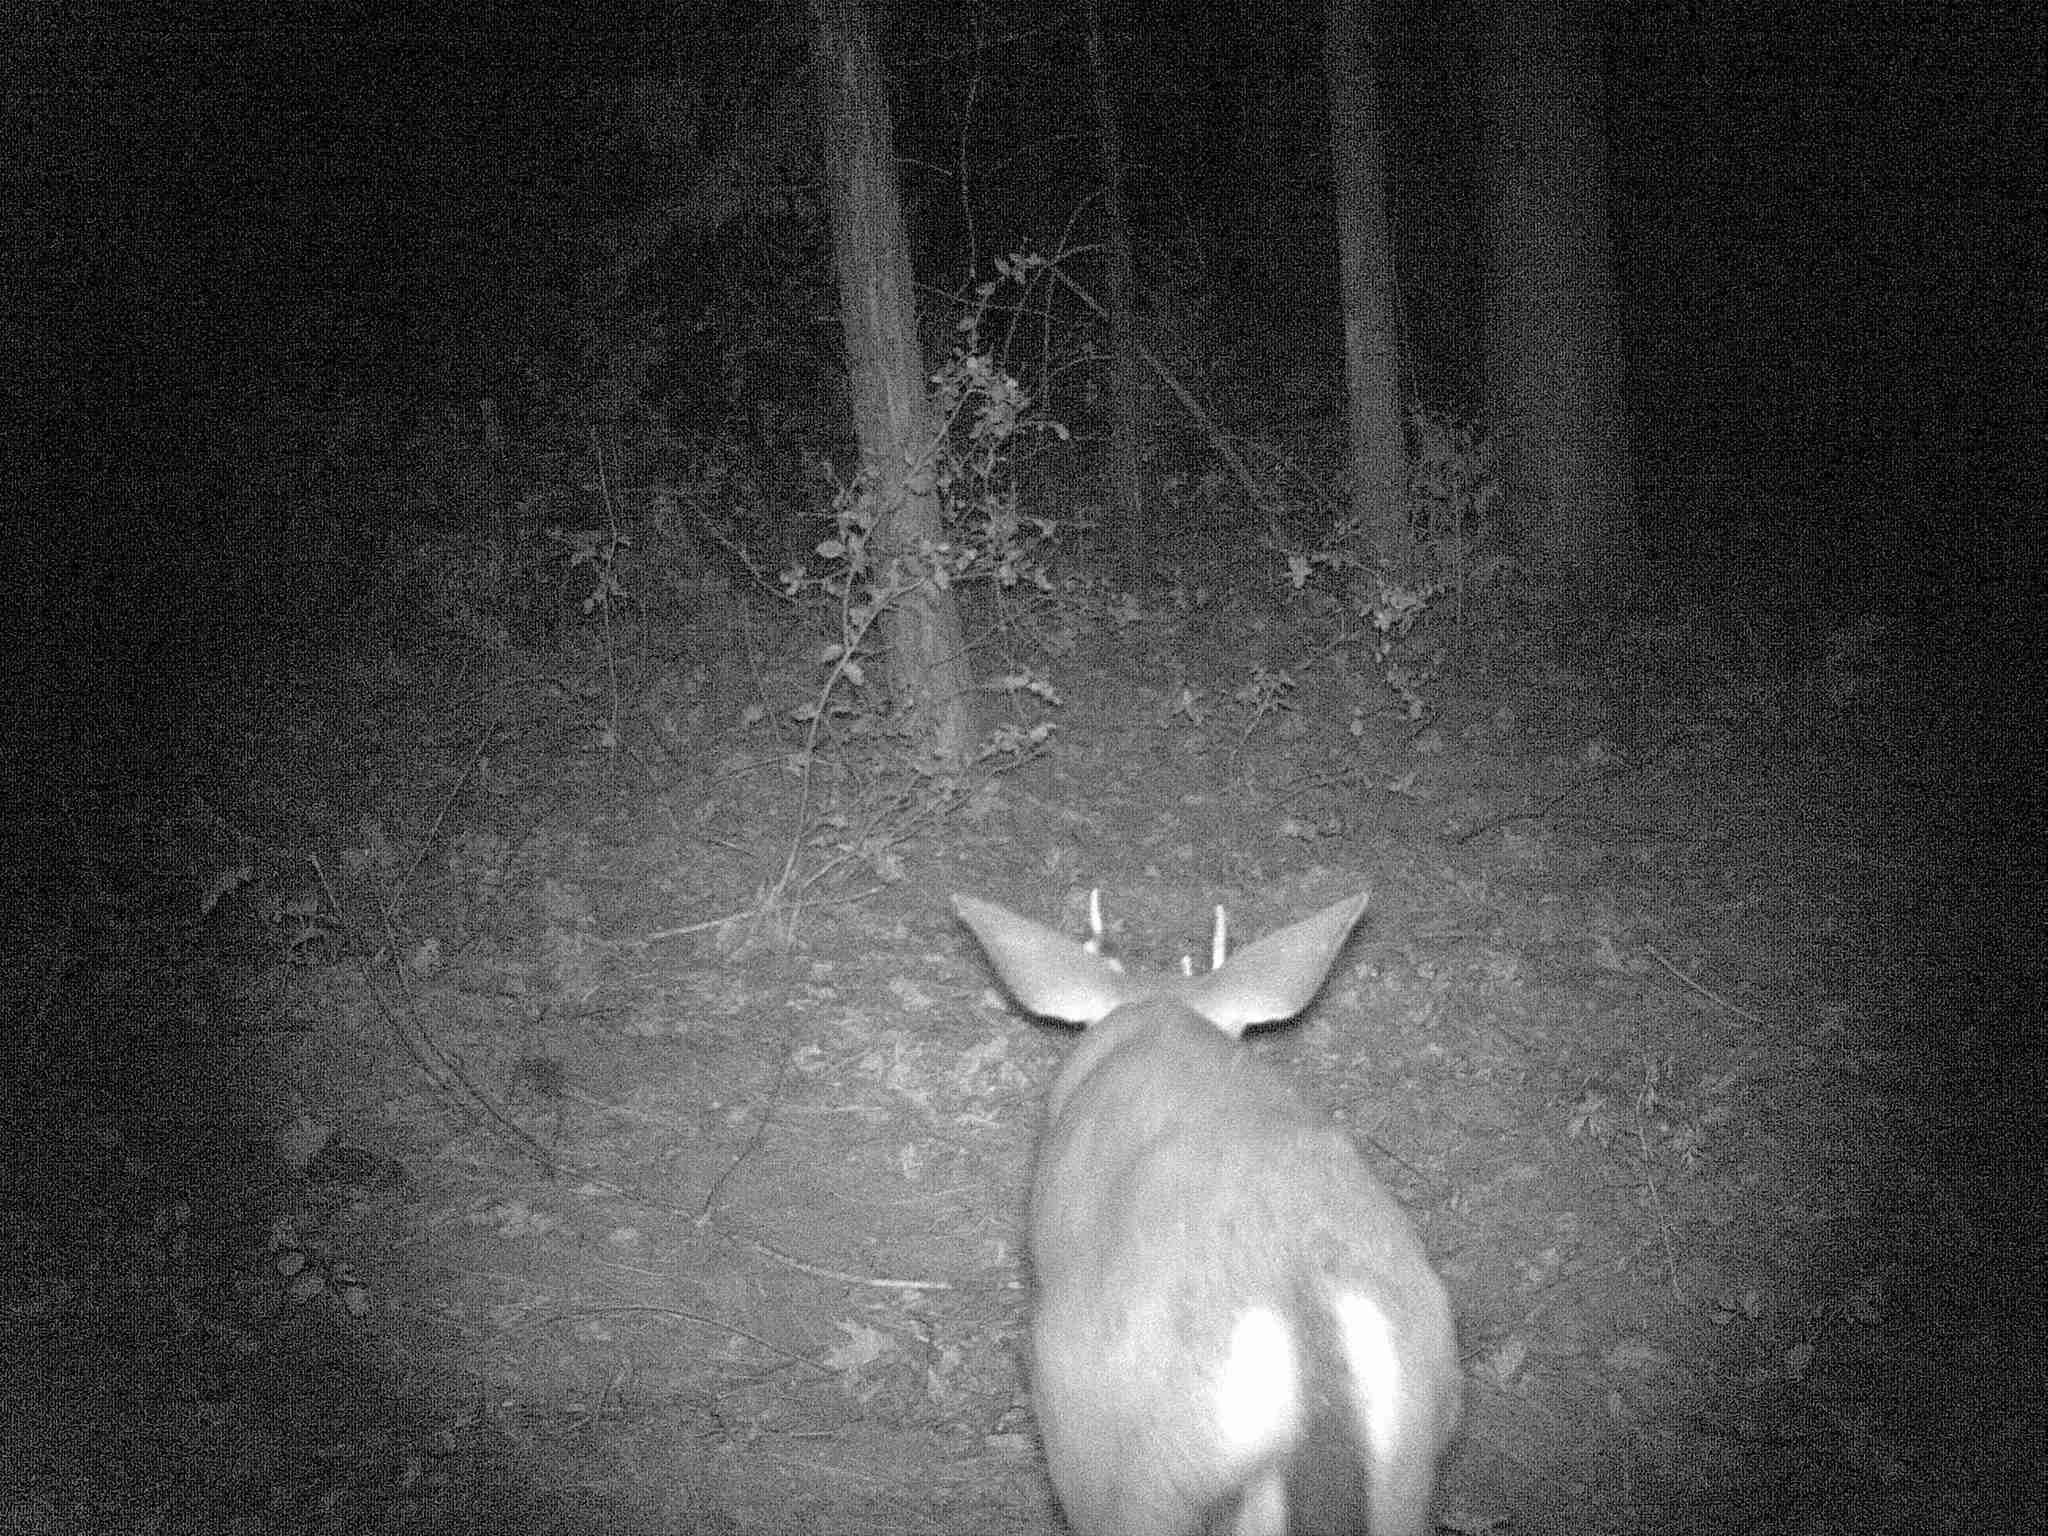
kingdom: Animalia
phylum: Chordata
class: Mammalia
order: Artiodactyla
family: Cervidae
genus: Odocoileus
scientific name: Odocoileus hemionus
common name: Mule deer
